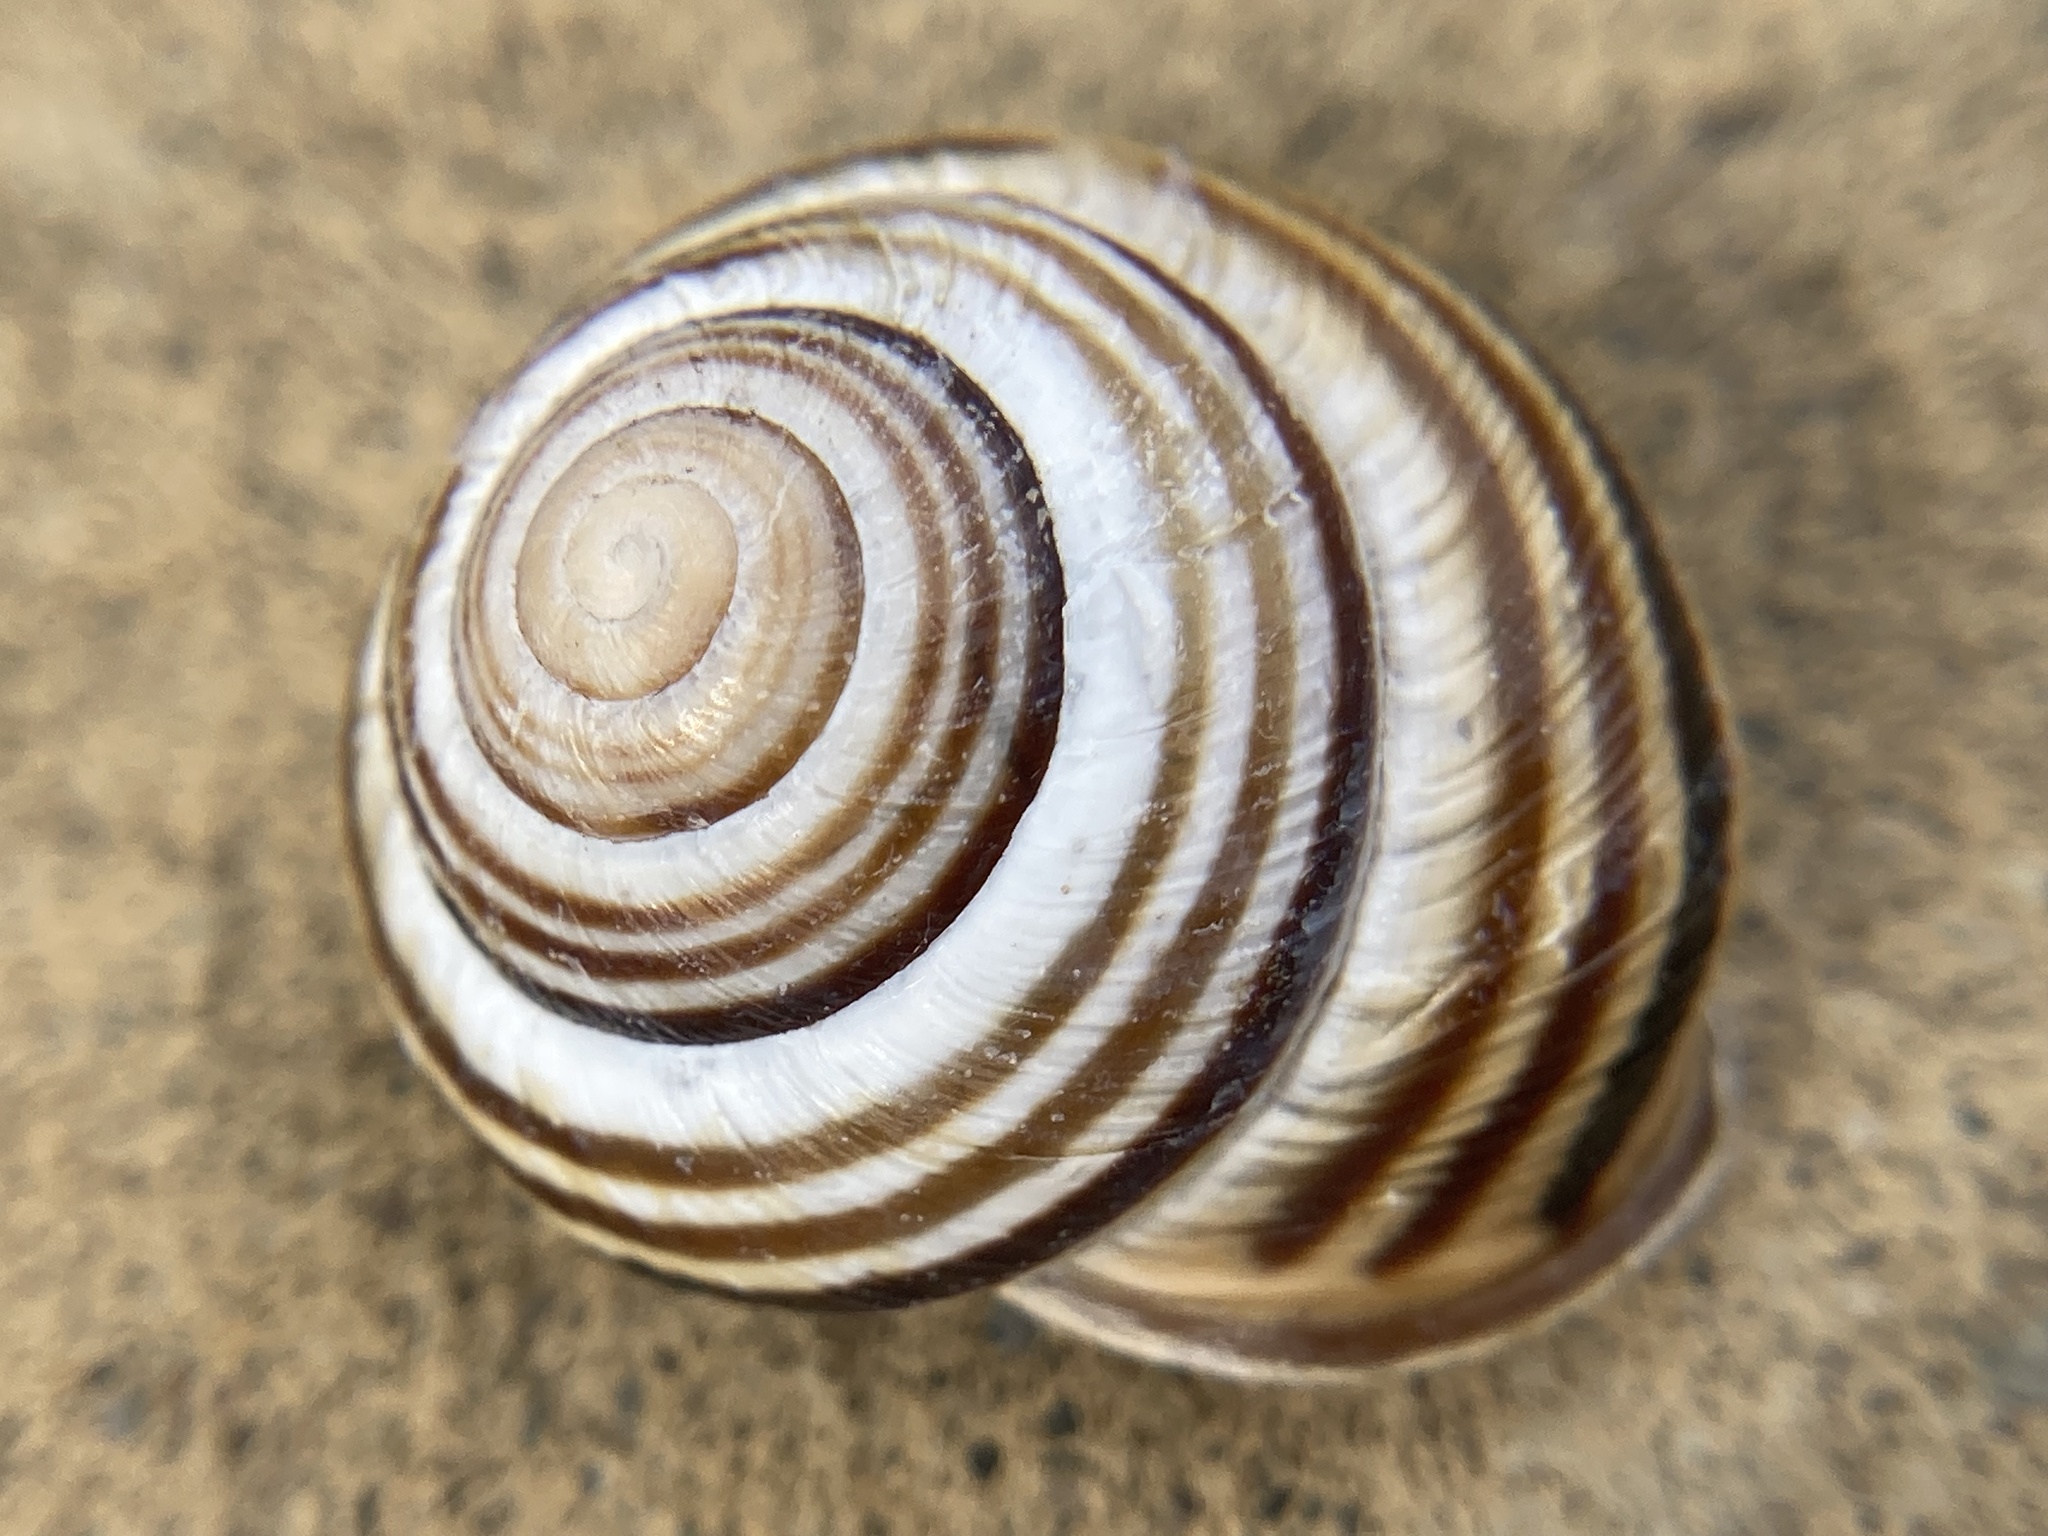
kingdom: Animalia
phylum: Mollusca
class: Gastropoda
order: Stylommatophora
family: Helicidae
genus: Caucasotachea
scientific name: Caucasotachea vindobonensis
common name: European helicid land snail
